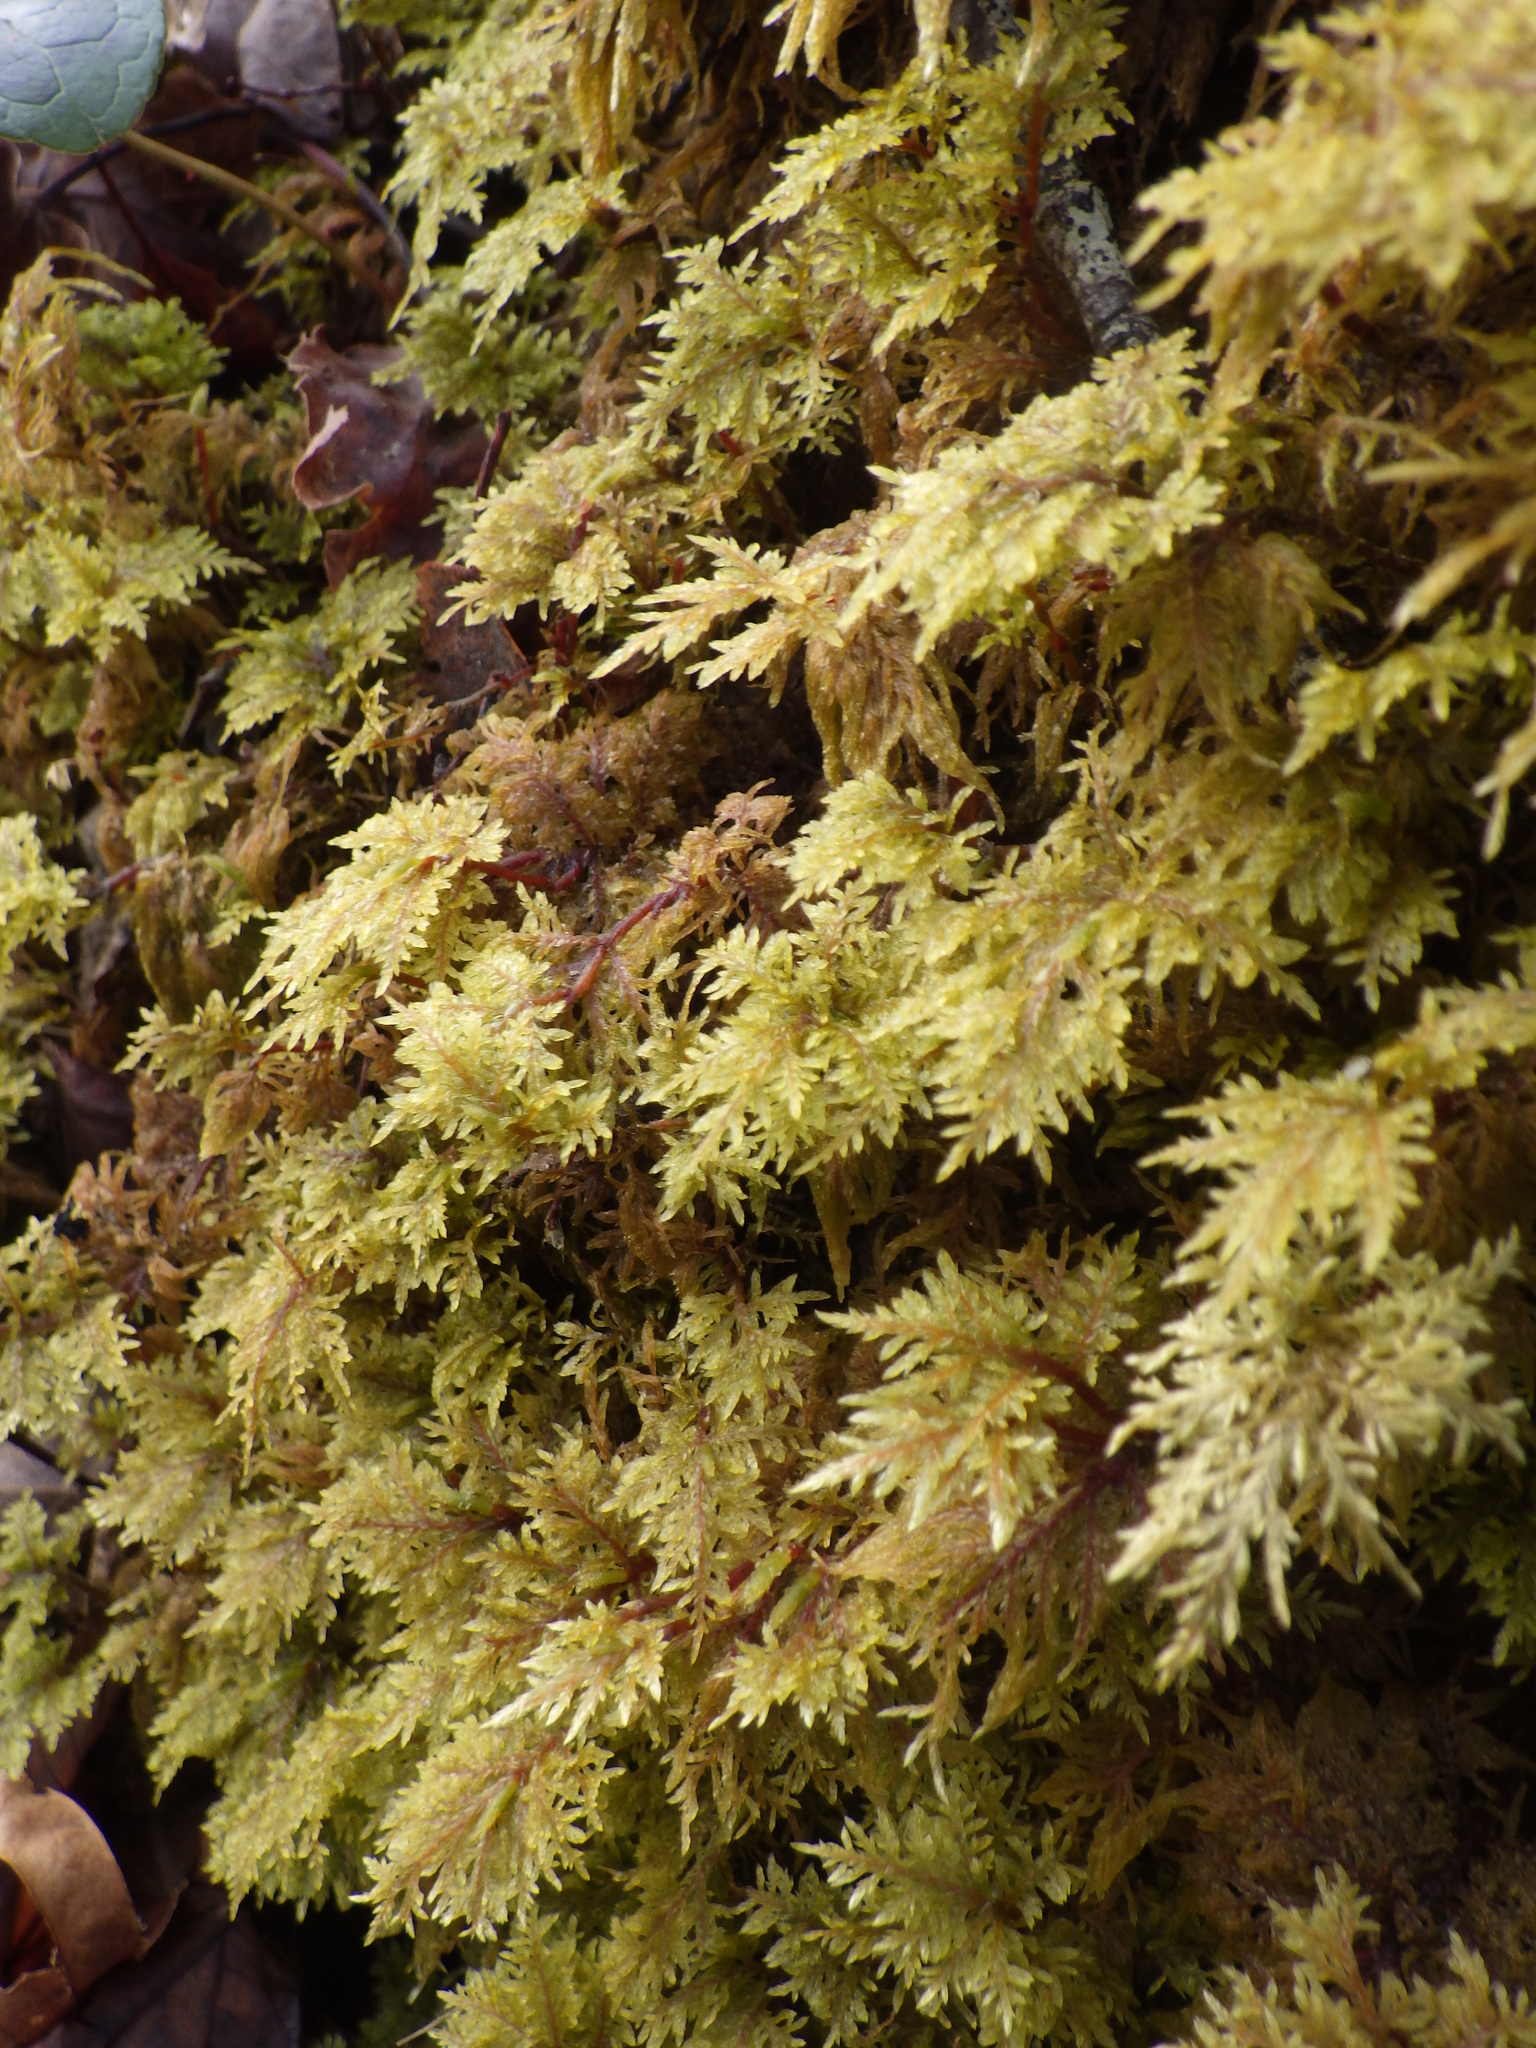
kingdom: Plantae
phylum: Bryophyta
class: Bryopsida
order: Hypnales
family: Hylocomiaceae
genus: Hylocomium
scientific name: Hylocomium splendens
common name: Stairstep moss
